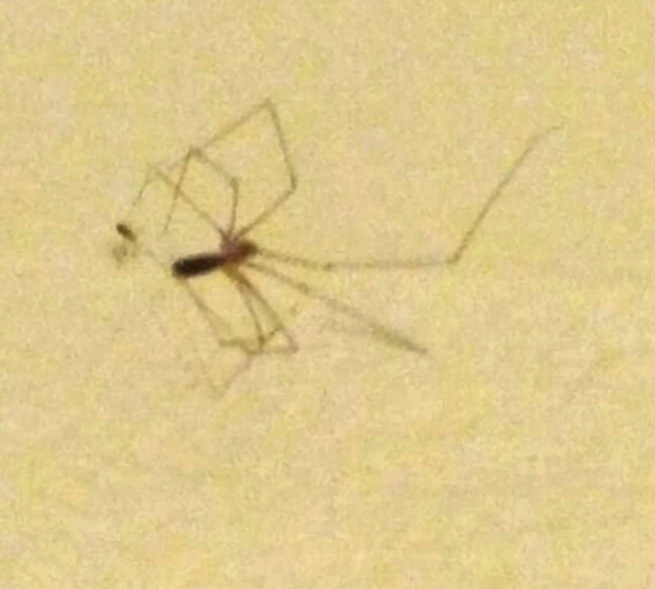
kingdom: Animalia
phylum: Arthropoda
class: Arachnida
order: Araneae
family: Pholcidae
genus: Pholcus
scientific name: Pholcus phalangioides
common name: Longbodied cellar spider
